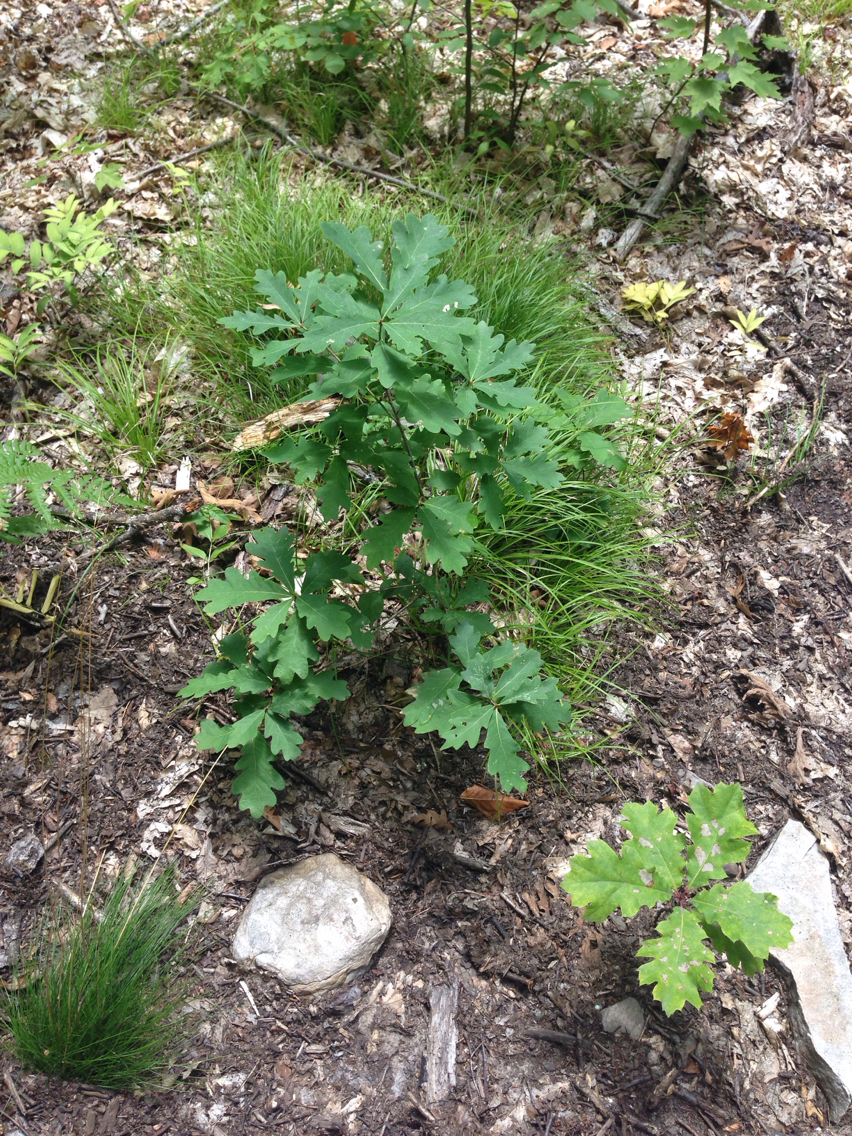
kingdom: Plantae
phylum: Tracheophyta
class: Magnoliopsida
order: Fagales
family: Fagaceae
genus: Quercus
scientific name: Quercus alba
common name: White oak
